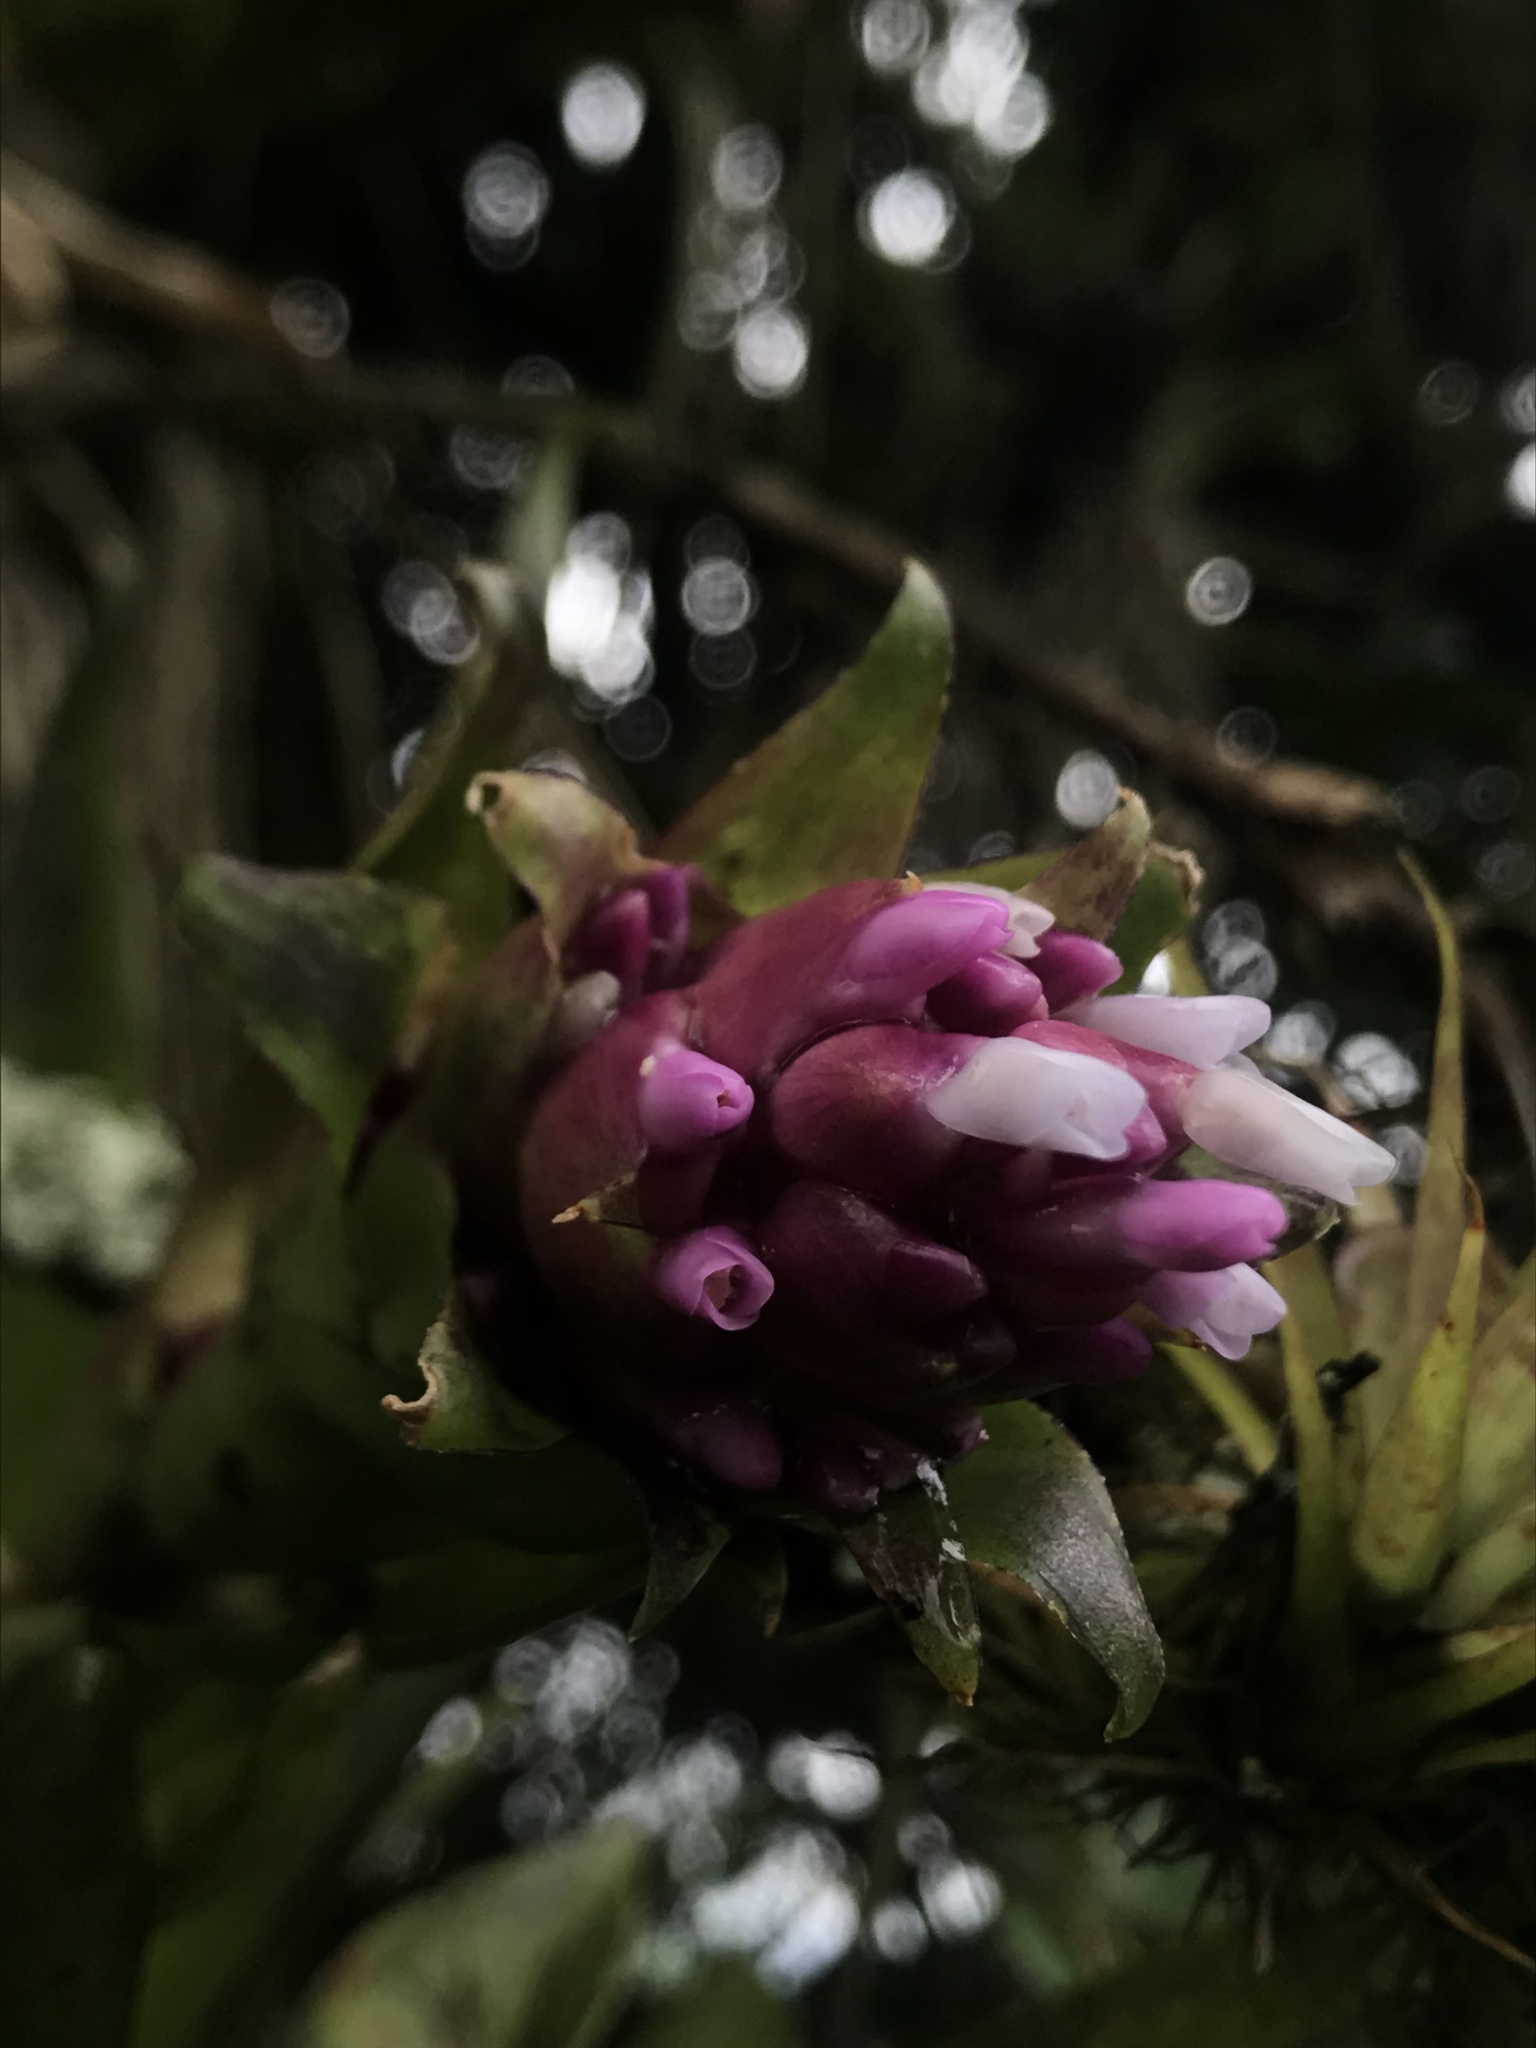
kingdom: Plantae
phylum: Tracheophyta
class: Liliopsida
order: Poales
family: Bromeliaceae
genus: Tillandsia
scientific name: Tillandsia biflora
